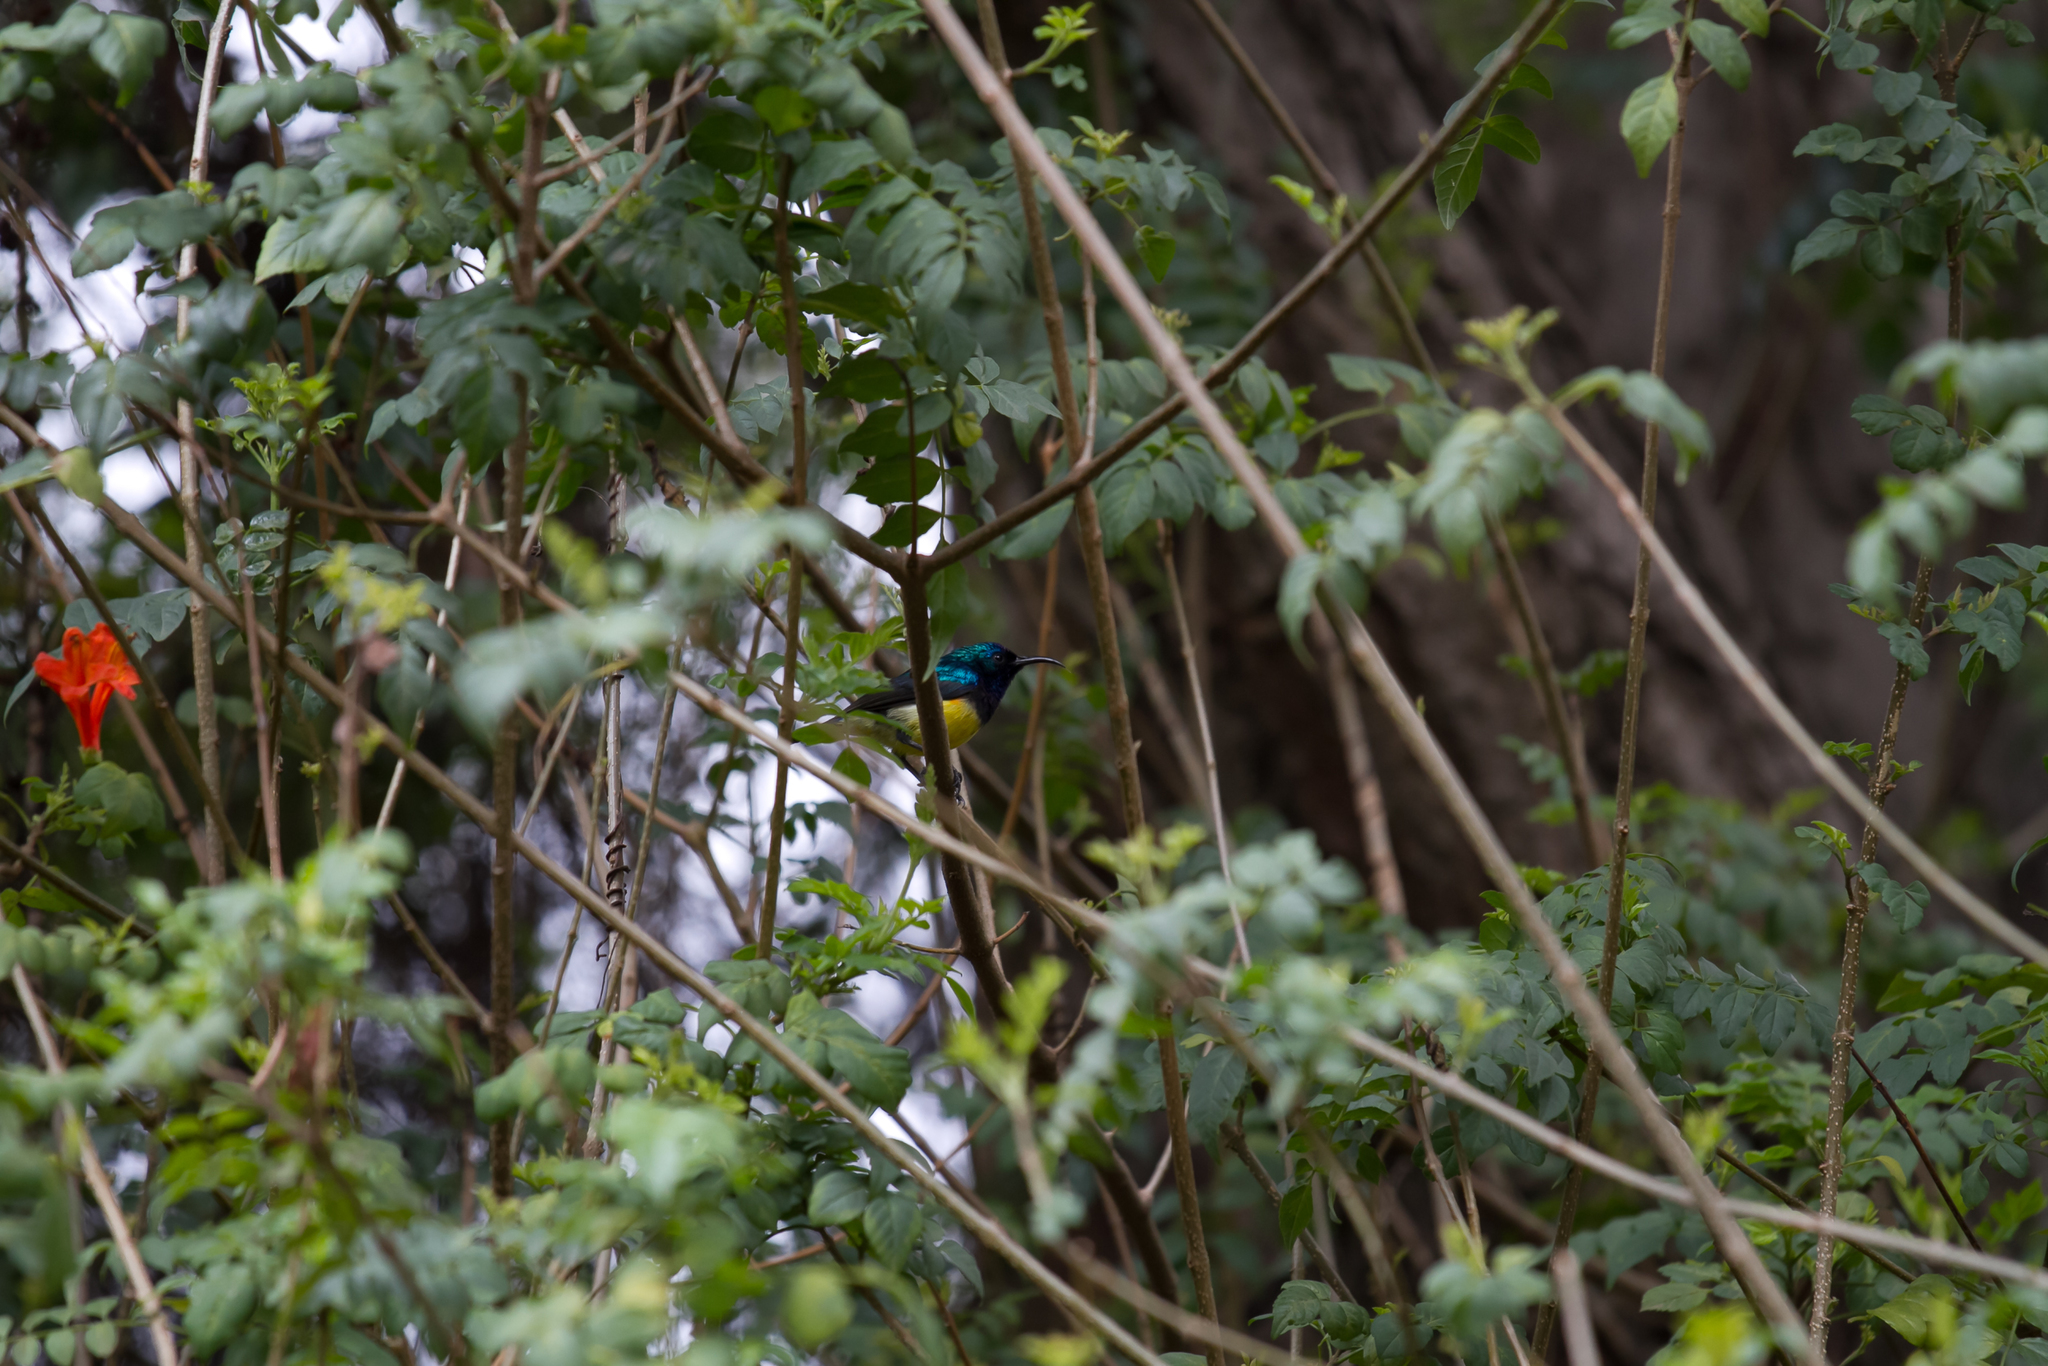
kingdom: Animalia
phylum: Chordata
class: Aves
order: Passeriformes
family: Nectariniidae
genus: Cinnyris
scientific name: Cinnyris venustus
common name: Variable sunbird
